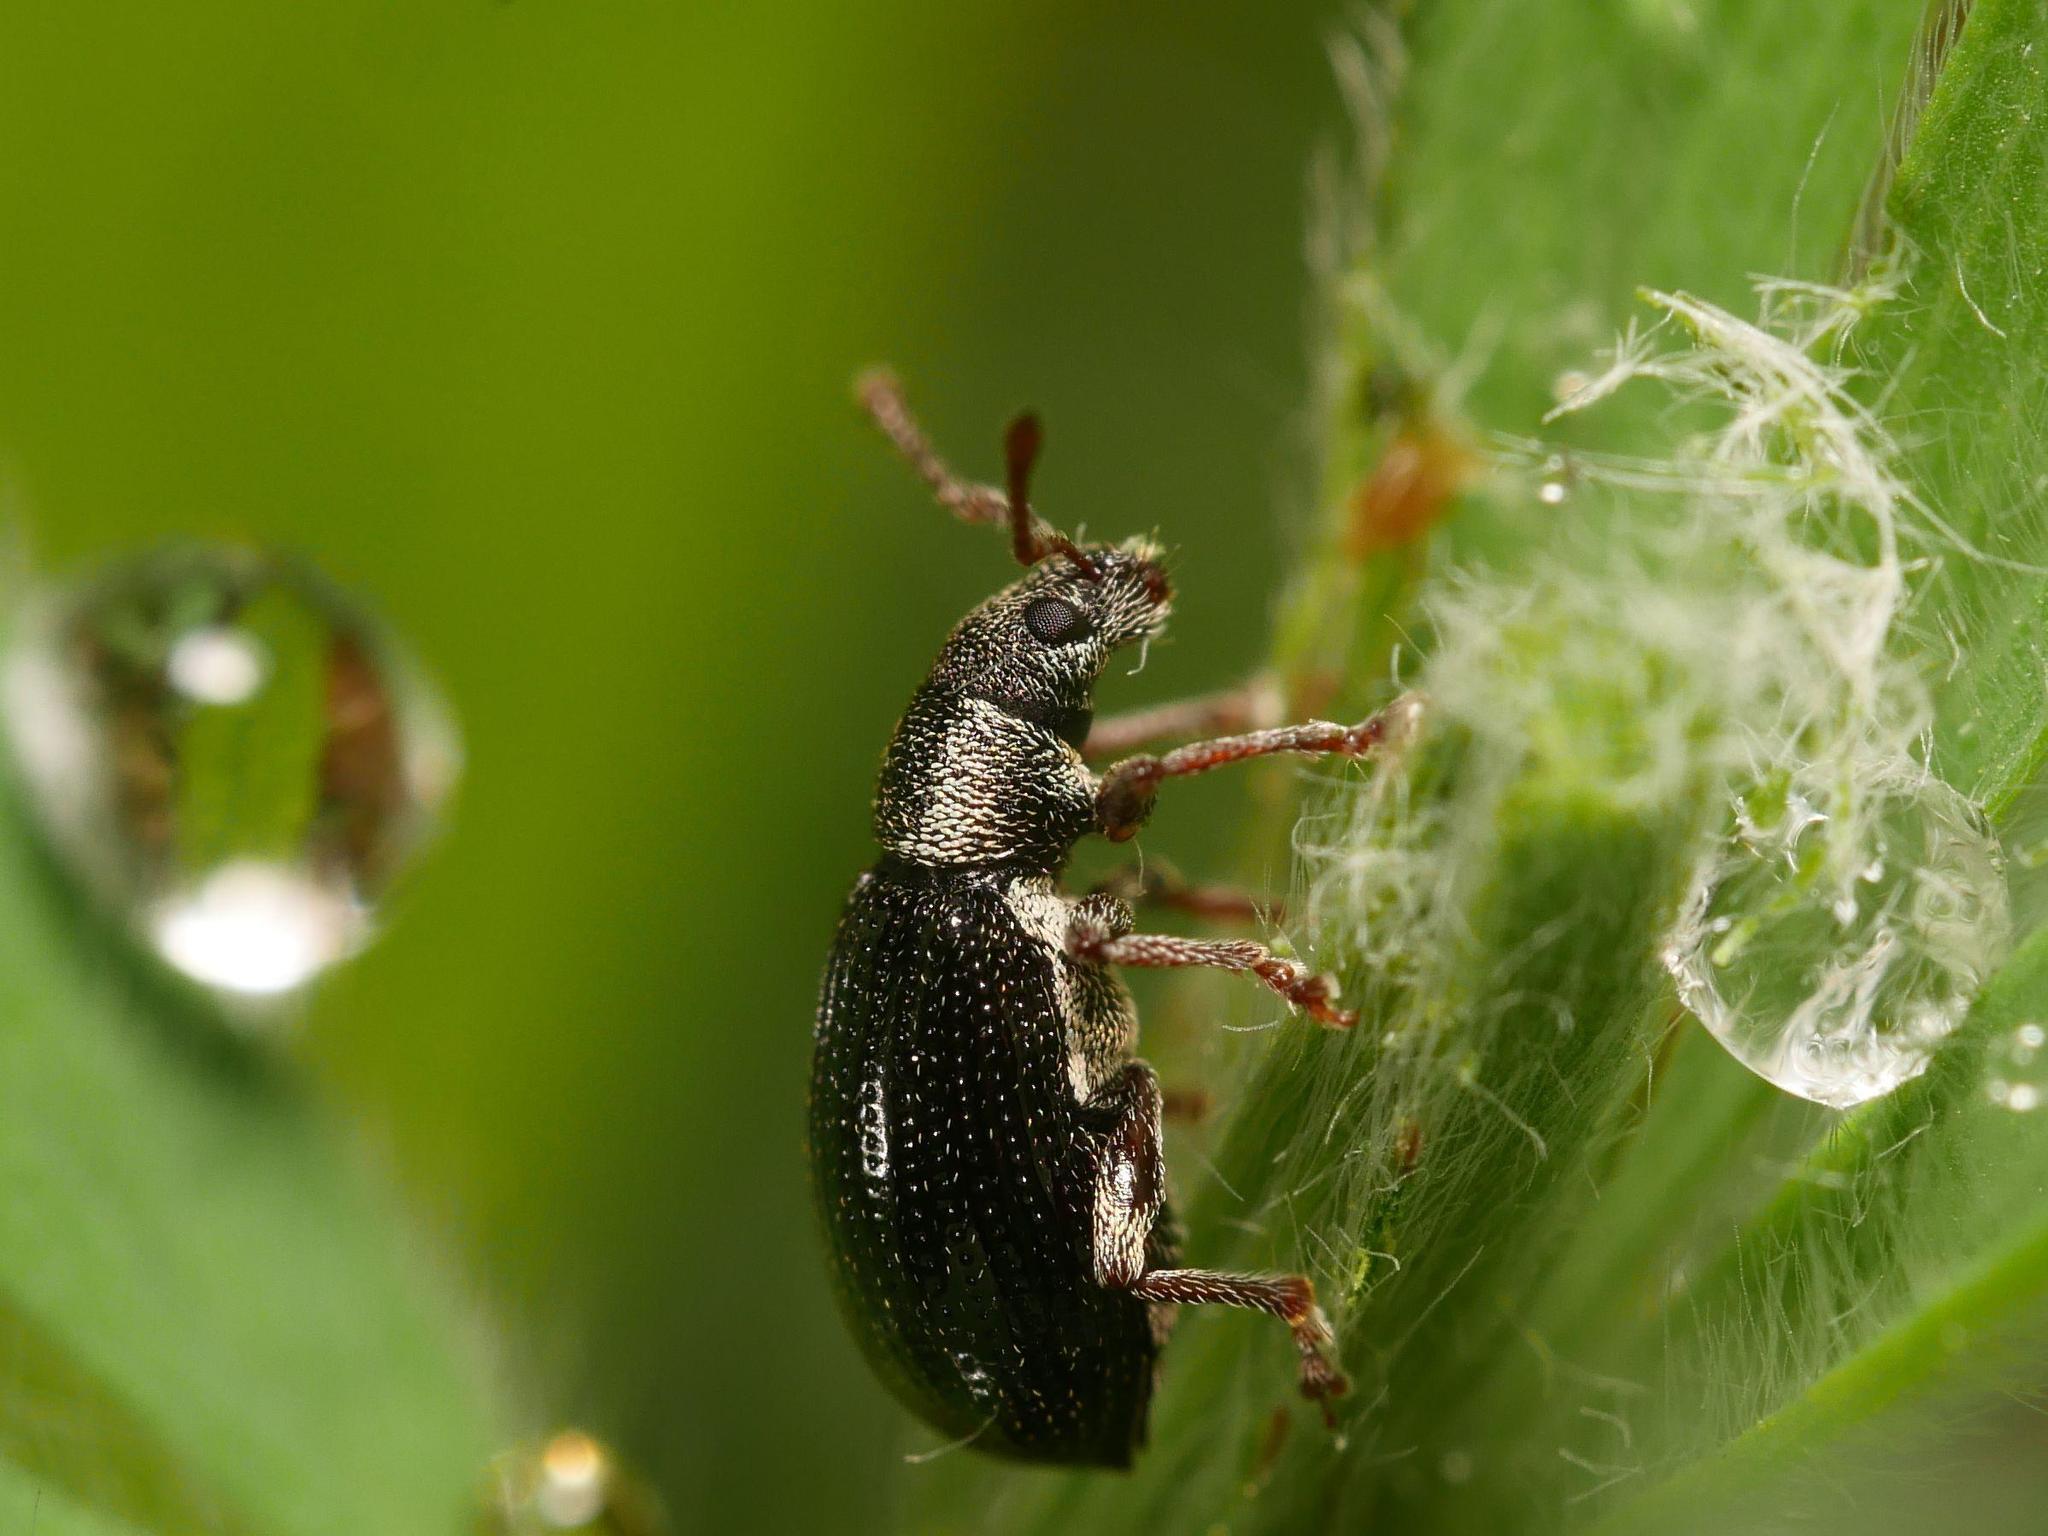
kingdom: Animalia
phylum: Arthropoda
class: Insecta
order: Coleoptera
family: Curculionidae
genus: Phyllobius
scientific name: Phyllobius viridicollis
